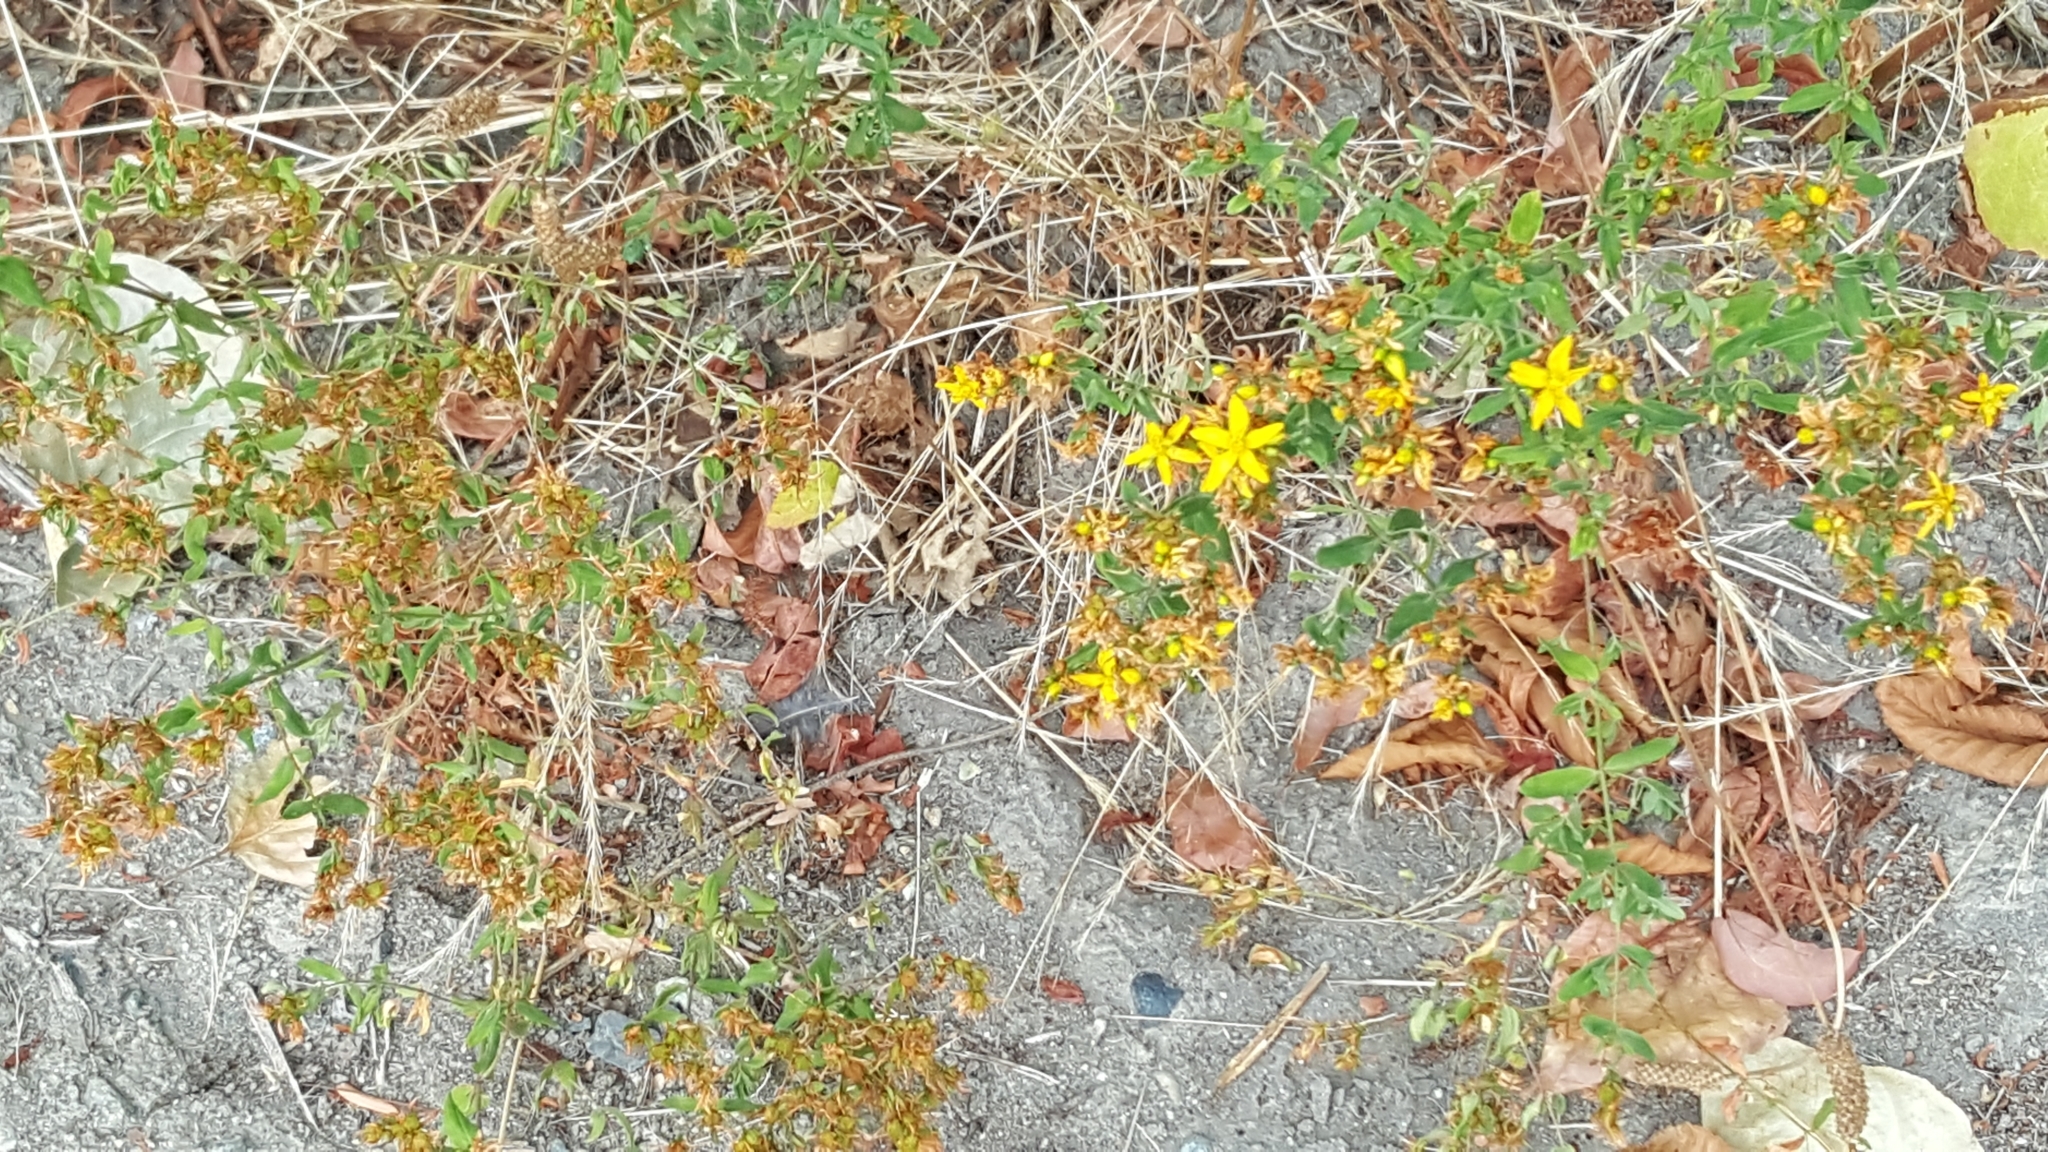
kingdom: Plantae
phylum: Tracheophyta
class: Magnoliopsida
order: Malpighiales
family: Hypericaceae
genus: Hypericum
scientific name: Hypericum perforatum
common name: Common st. johnswort
